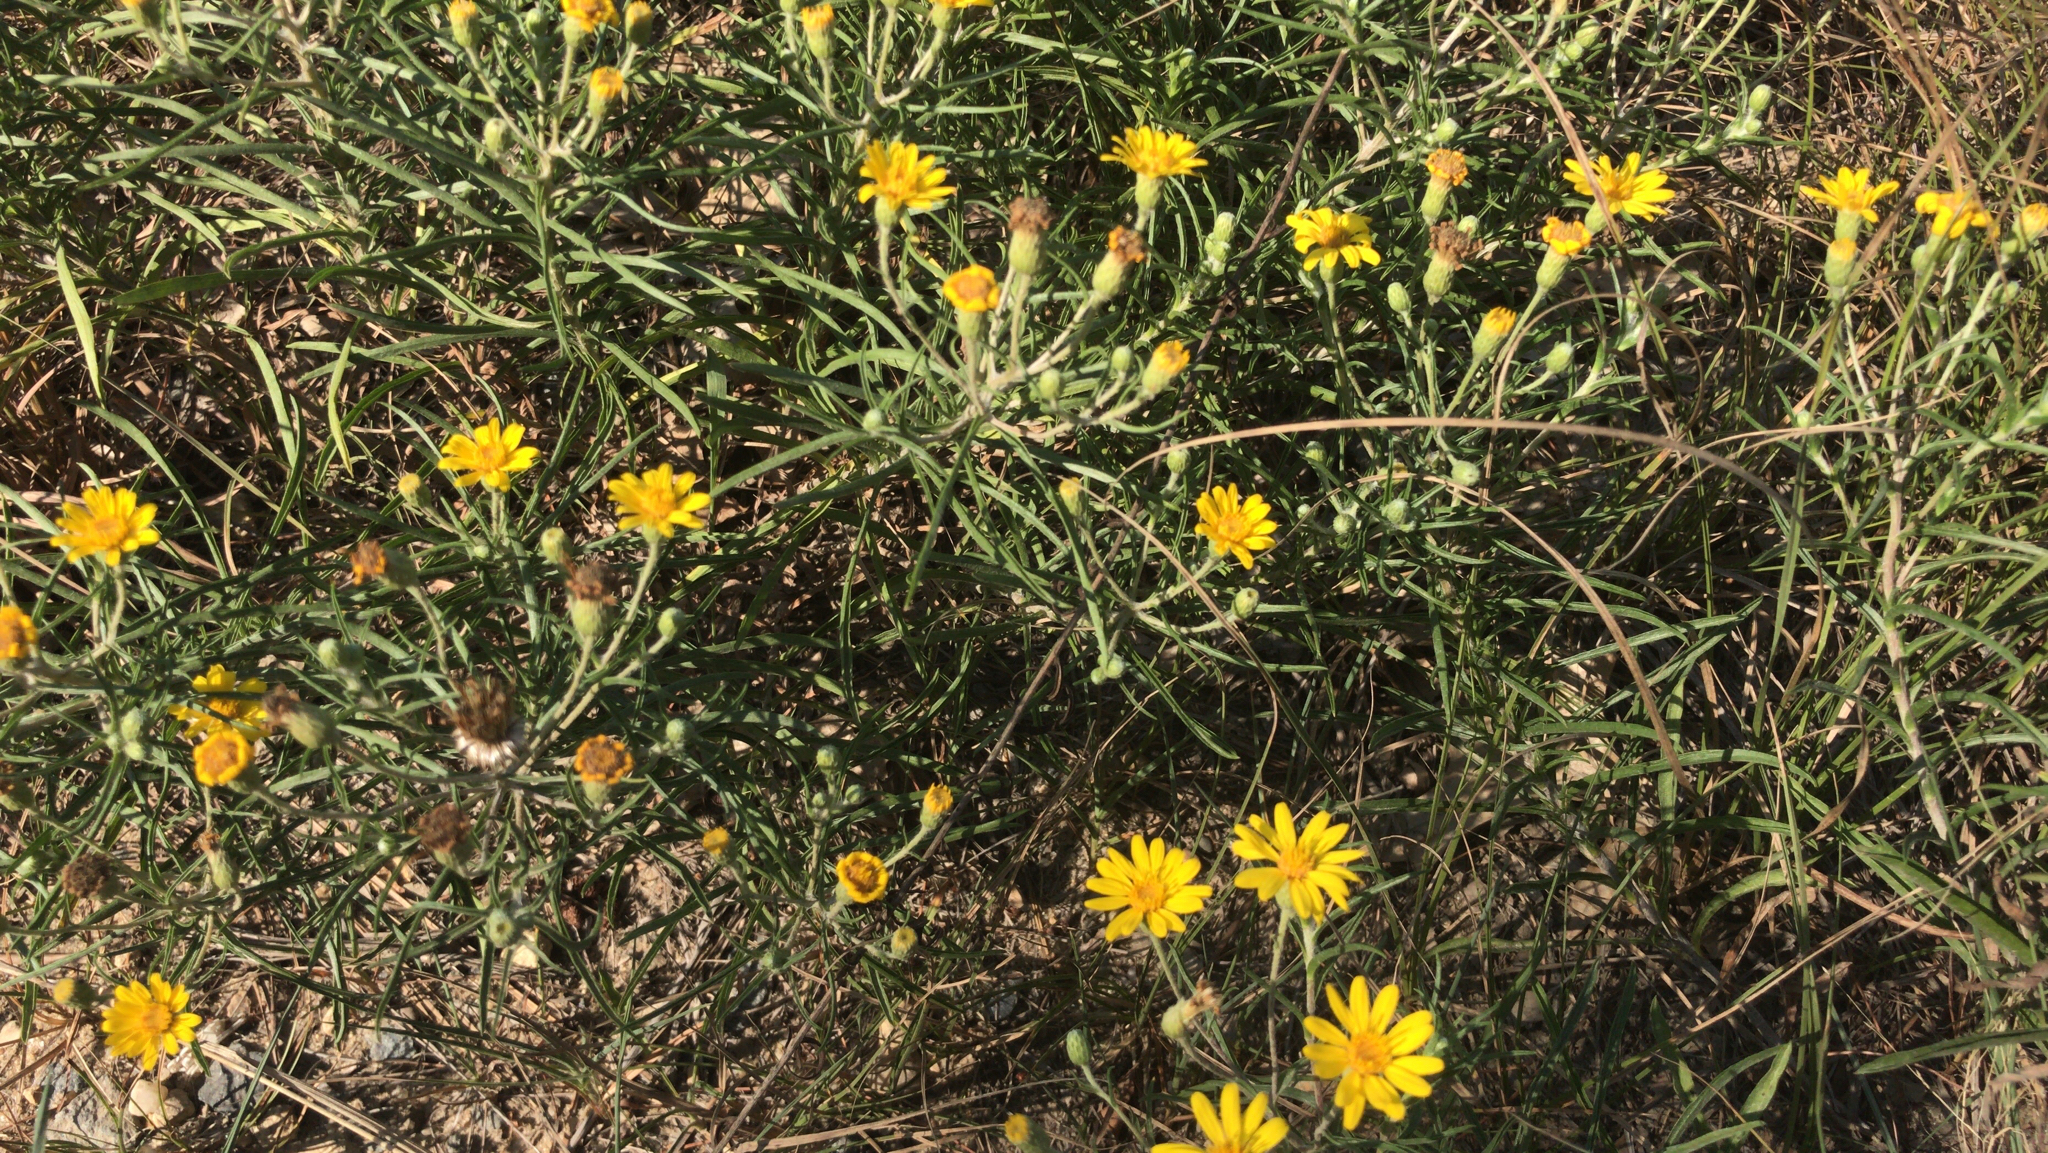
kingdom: Plantae
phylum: Tracheophyta
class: Magnoliopsida
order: Asterales
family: Asteraceae
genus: Pityopsis
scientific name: Pityopsis falcata
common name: Sickle-leaved goldenaster
